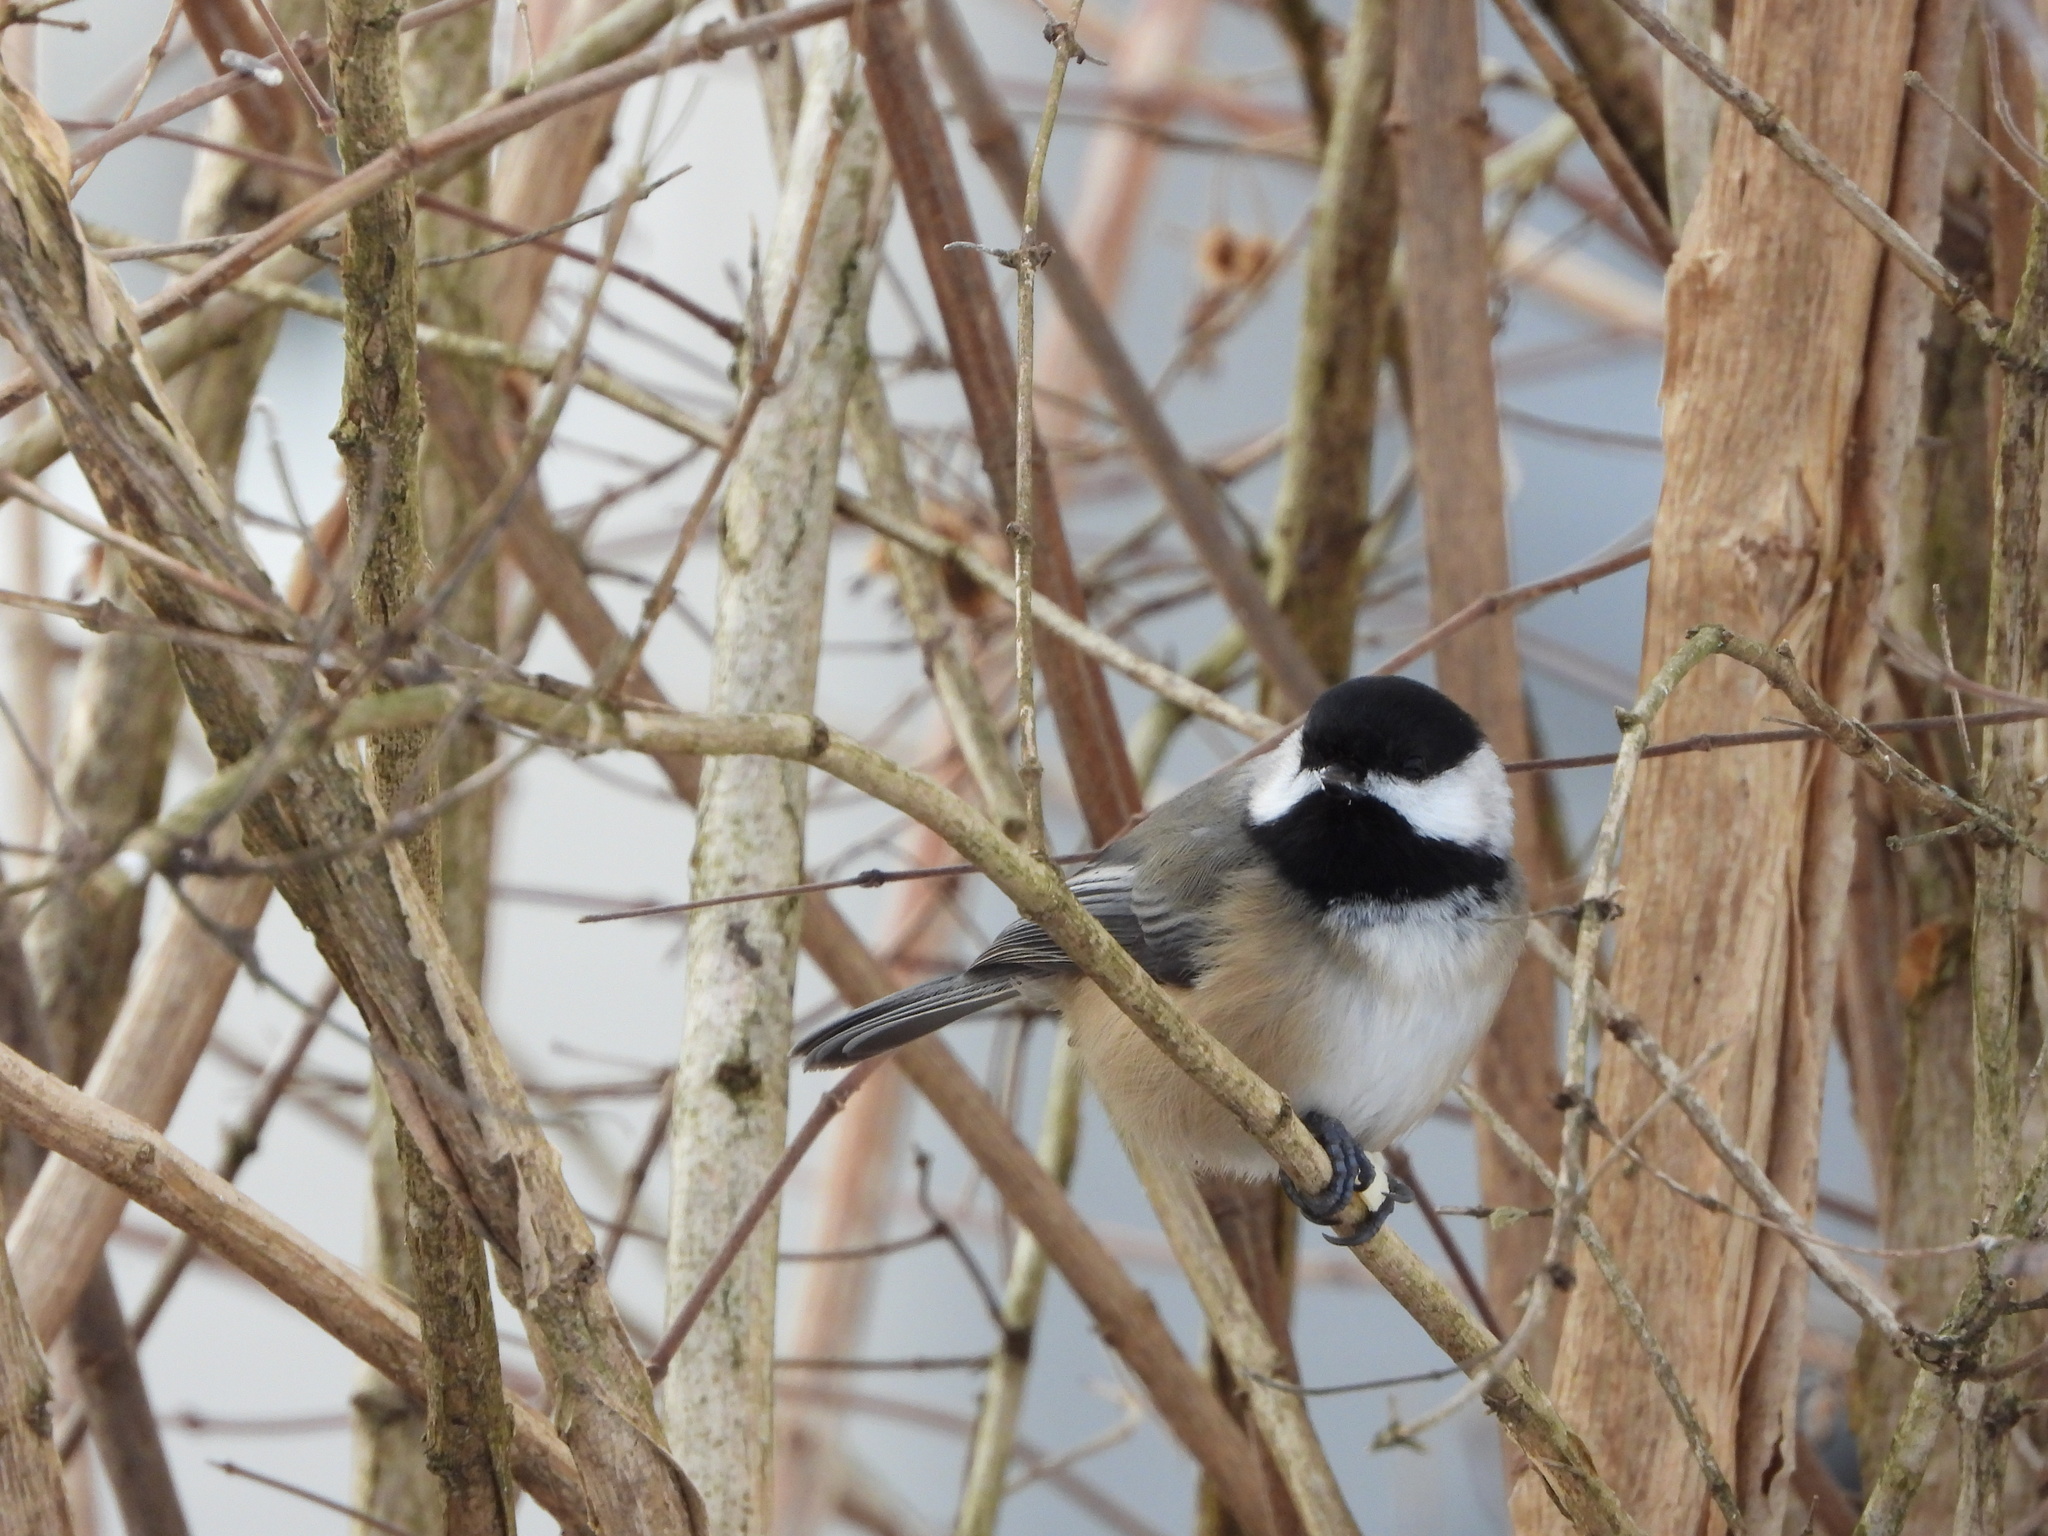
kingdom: Animalia
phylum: Chordata
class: Aves
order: Passeriformes
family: Paridae
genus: Poecile
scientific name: Poecile atricapillus
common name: Black-capped chickadee
